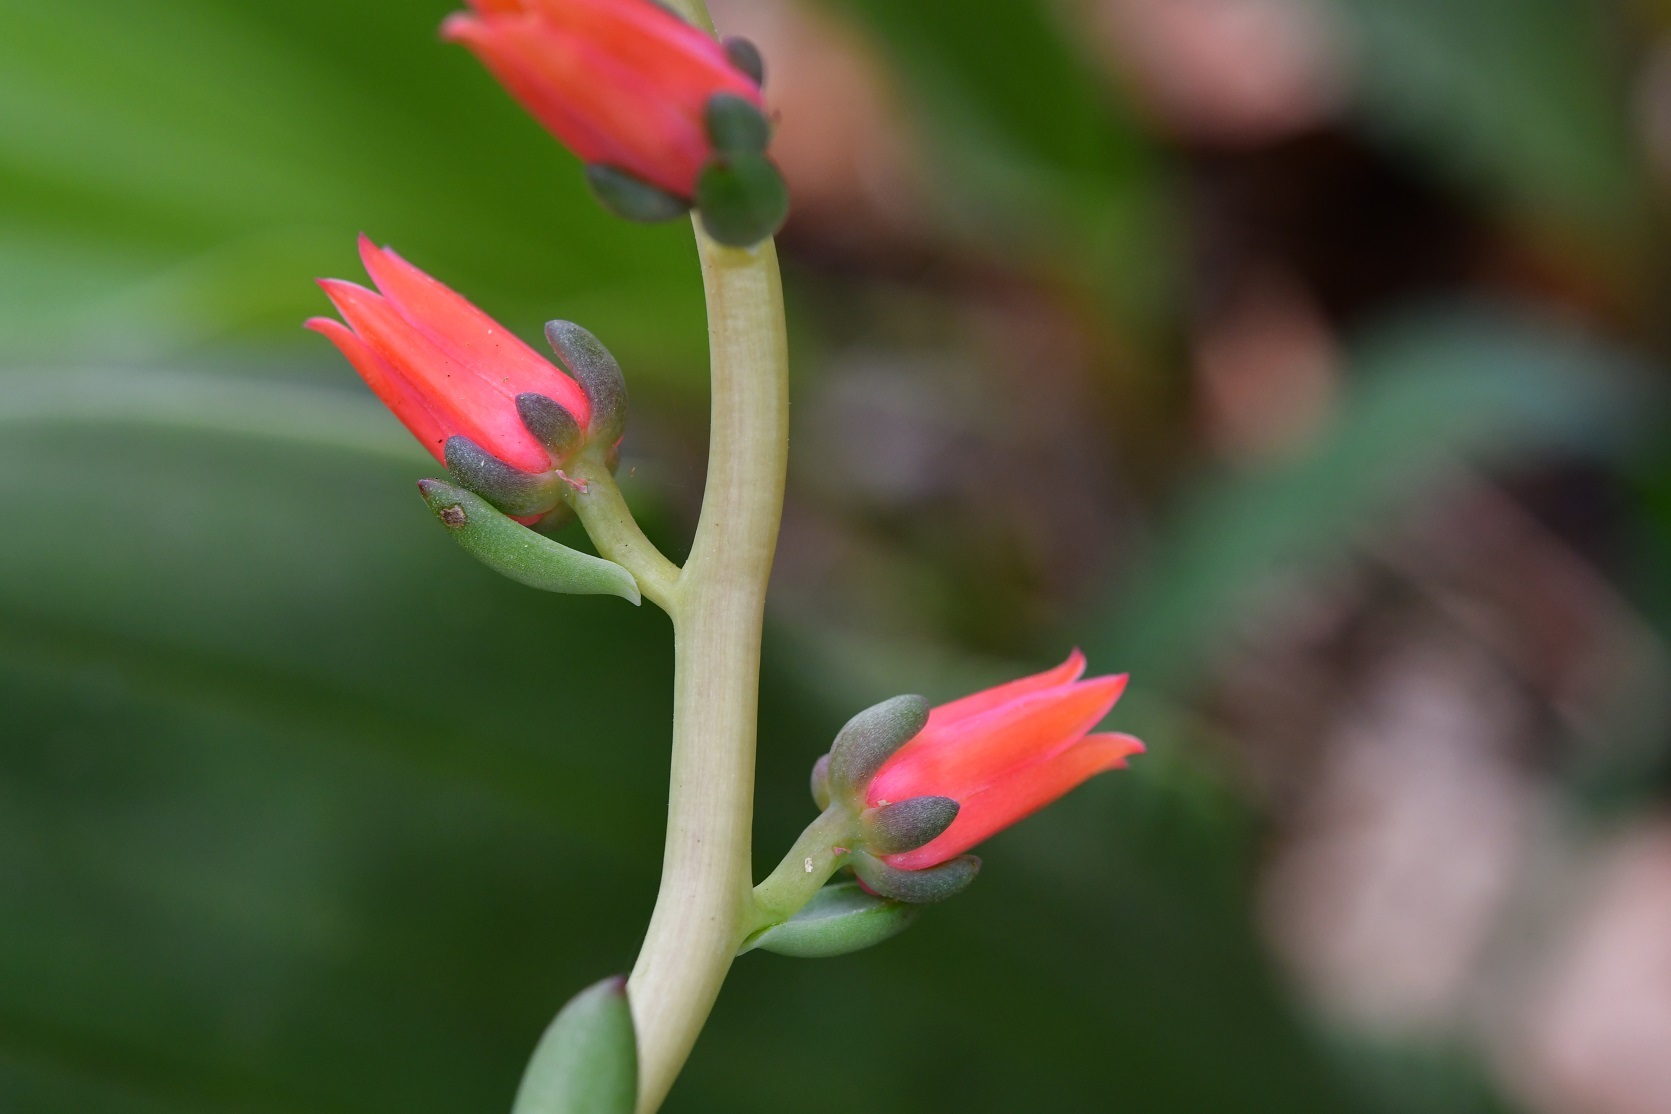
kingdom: Plantae
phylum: Tracheophyta
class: Magnoliopsida
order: Saxifragales
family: Crassulaceae
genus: Echeveria
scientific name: Echeveria goldmanii
